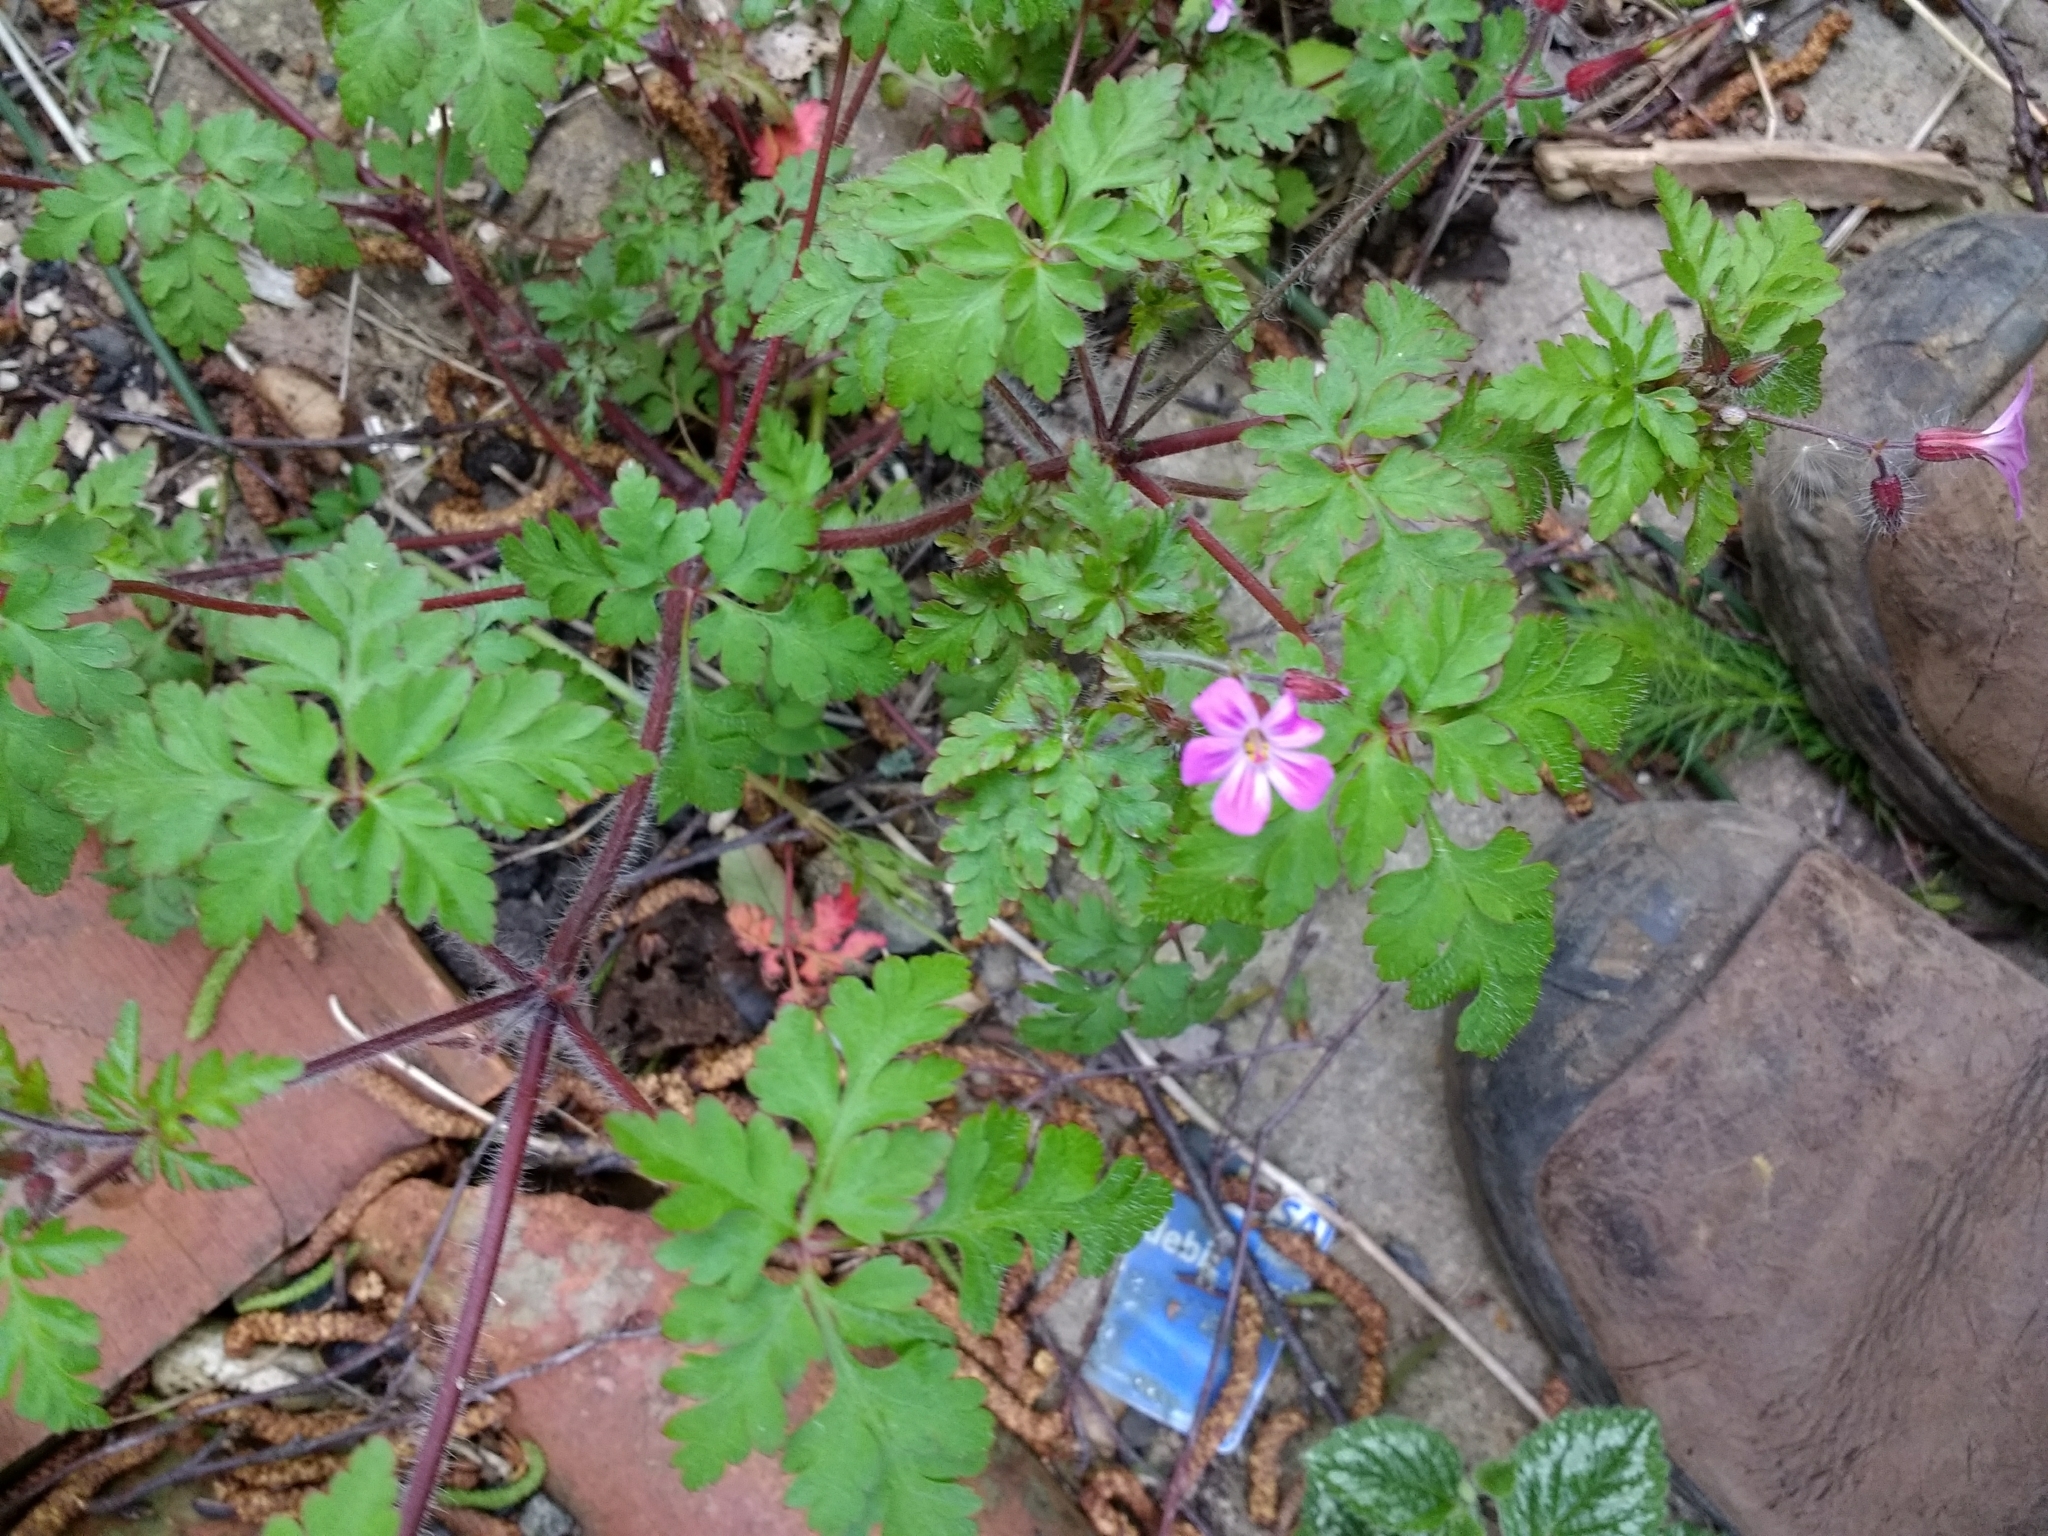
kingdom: Plantae
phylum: Tracheophyta
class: Magnoliopsida
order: Geraniales
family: Geraniaceae
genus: Geranium
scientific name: Geranium robertianum
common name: Herb-robert
